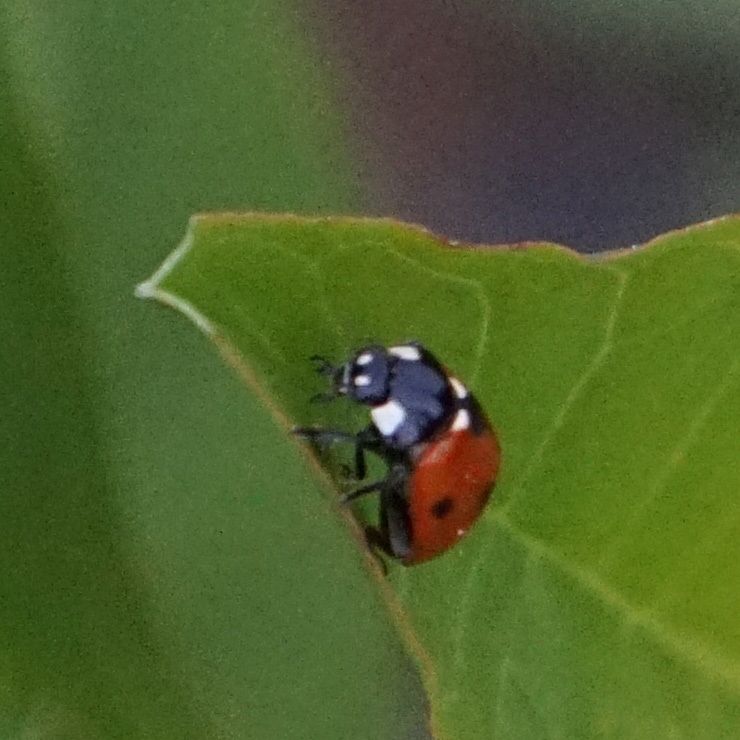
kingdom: Animalia
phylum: Arthropoda
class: Insecta
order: Coleoptera
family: Coccinellidae
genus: Coccinella
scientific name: Coccinella septempunctata
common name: Sevenspotted lady beetle
